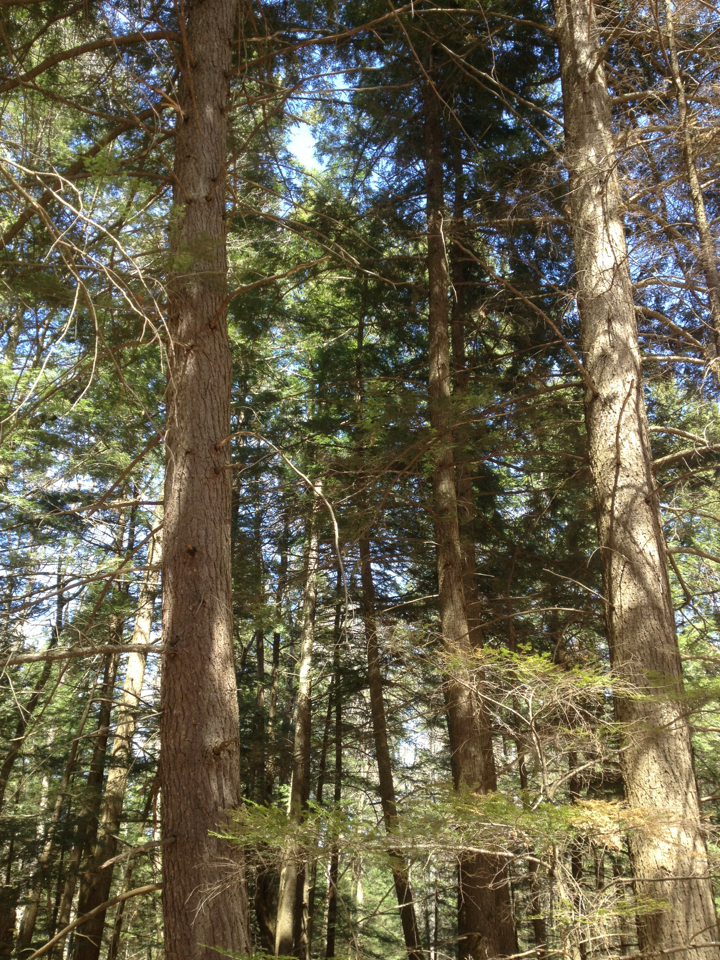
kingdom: Plantae
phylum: Tracheophyta
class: Pinopsida
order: Pinales
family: Pinaceae
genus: Tsuga
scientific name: Tsuga canadensis
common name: Eastern hemlock
